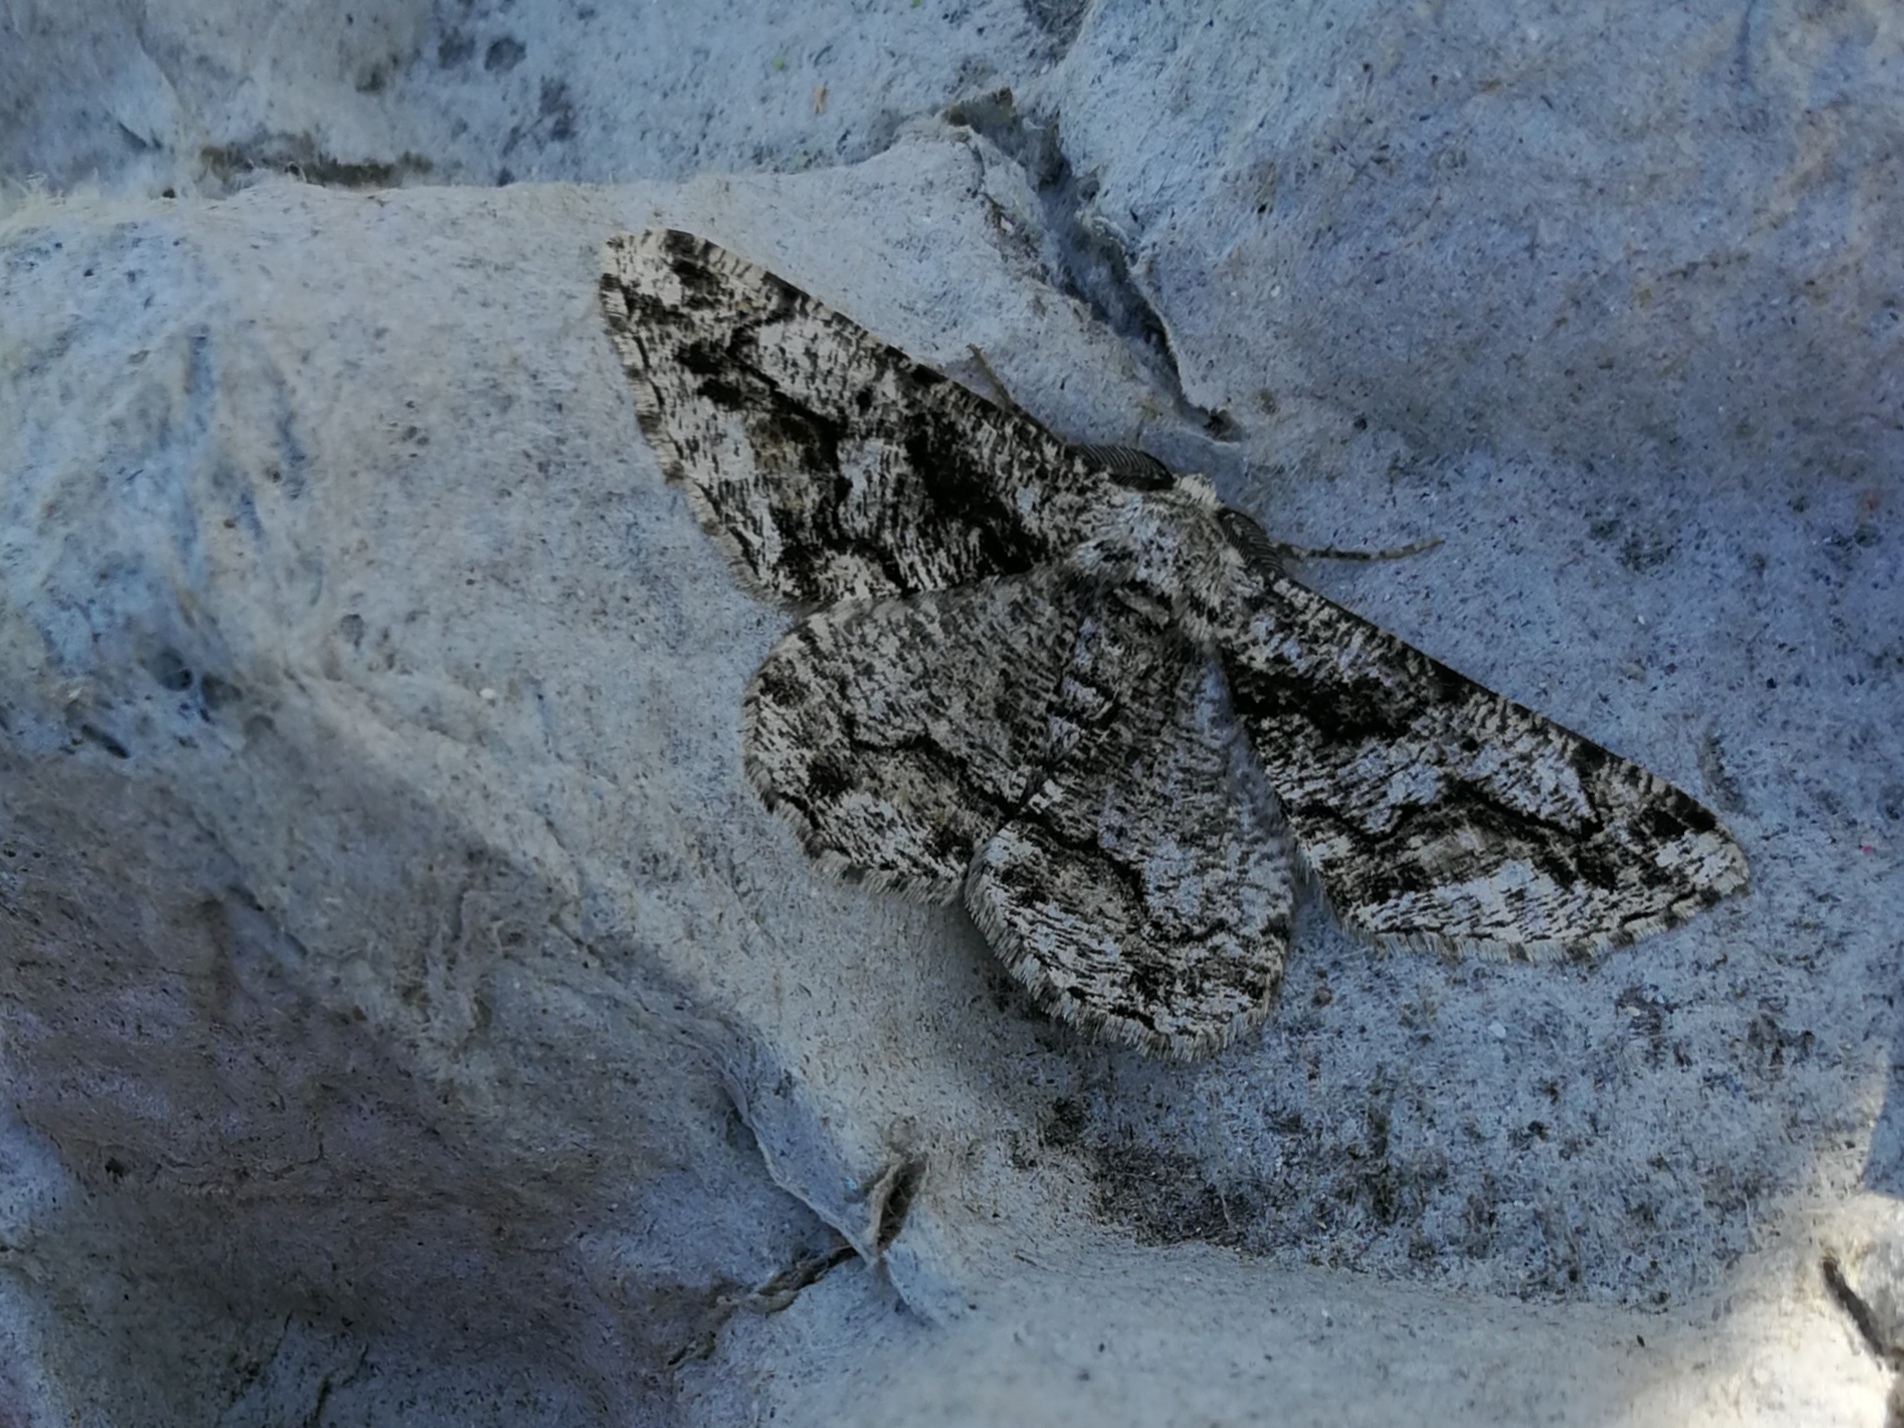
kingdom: Animalia
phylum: Arthropoda
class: Insecta
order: Lepidoptera
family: Geometridae
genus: Peribatodes
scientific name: Peribatodes umbraria
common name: Olive-tree beauty
